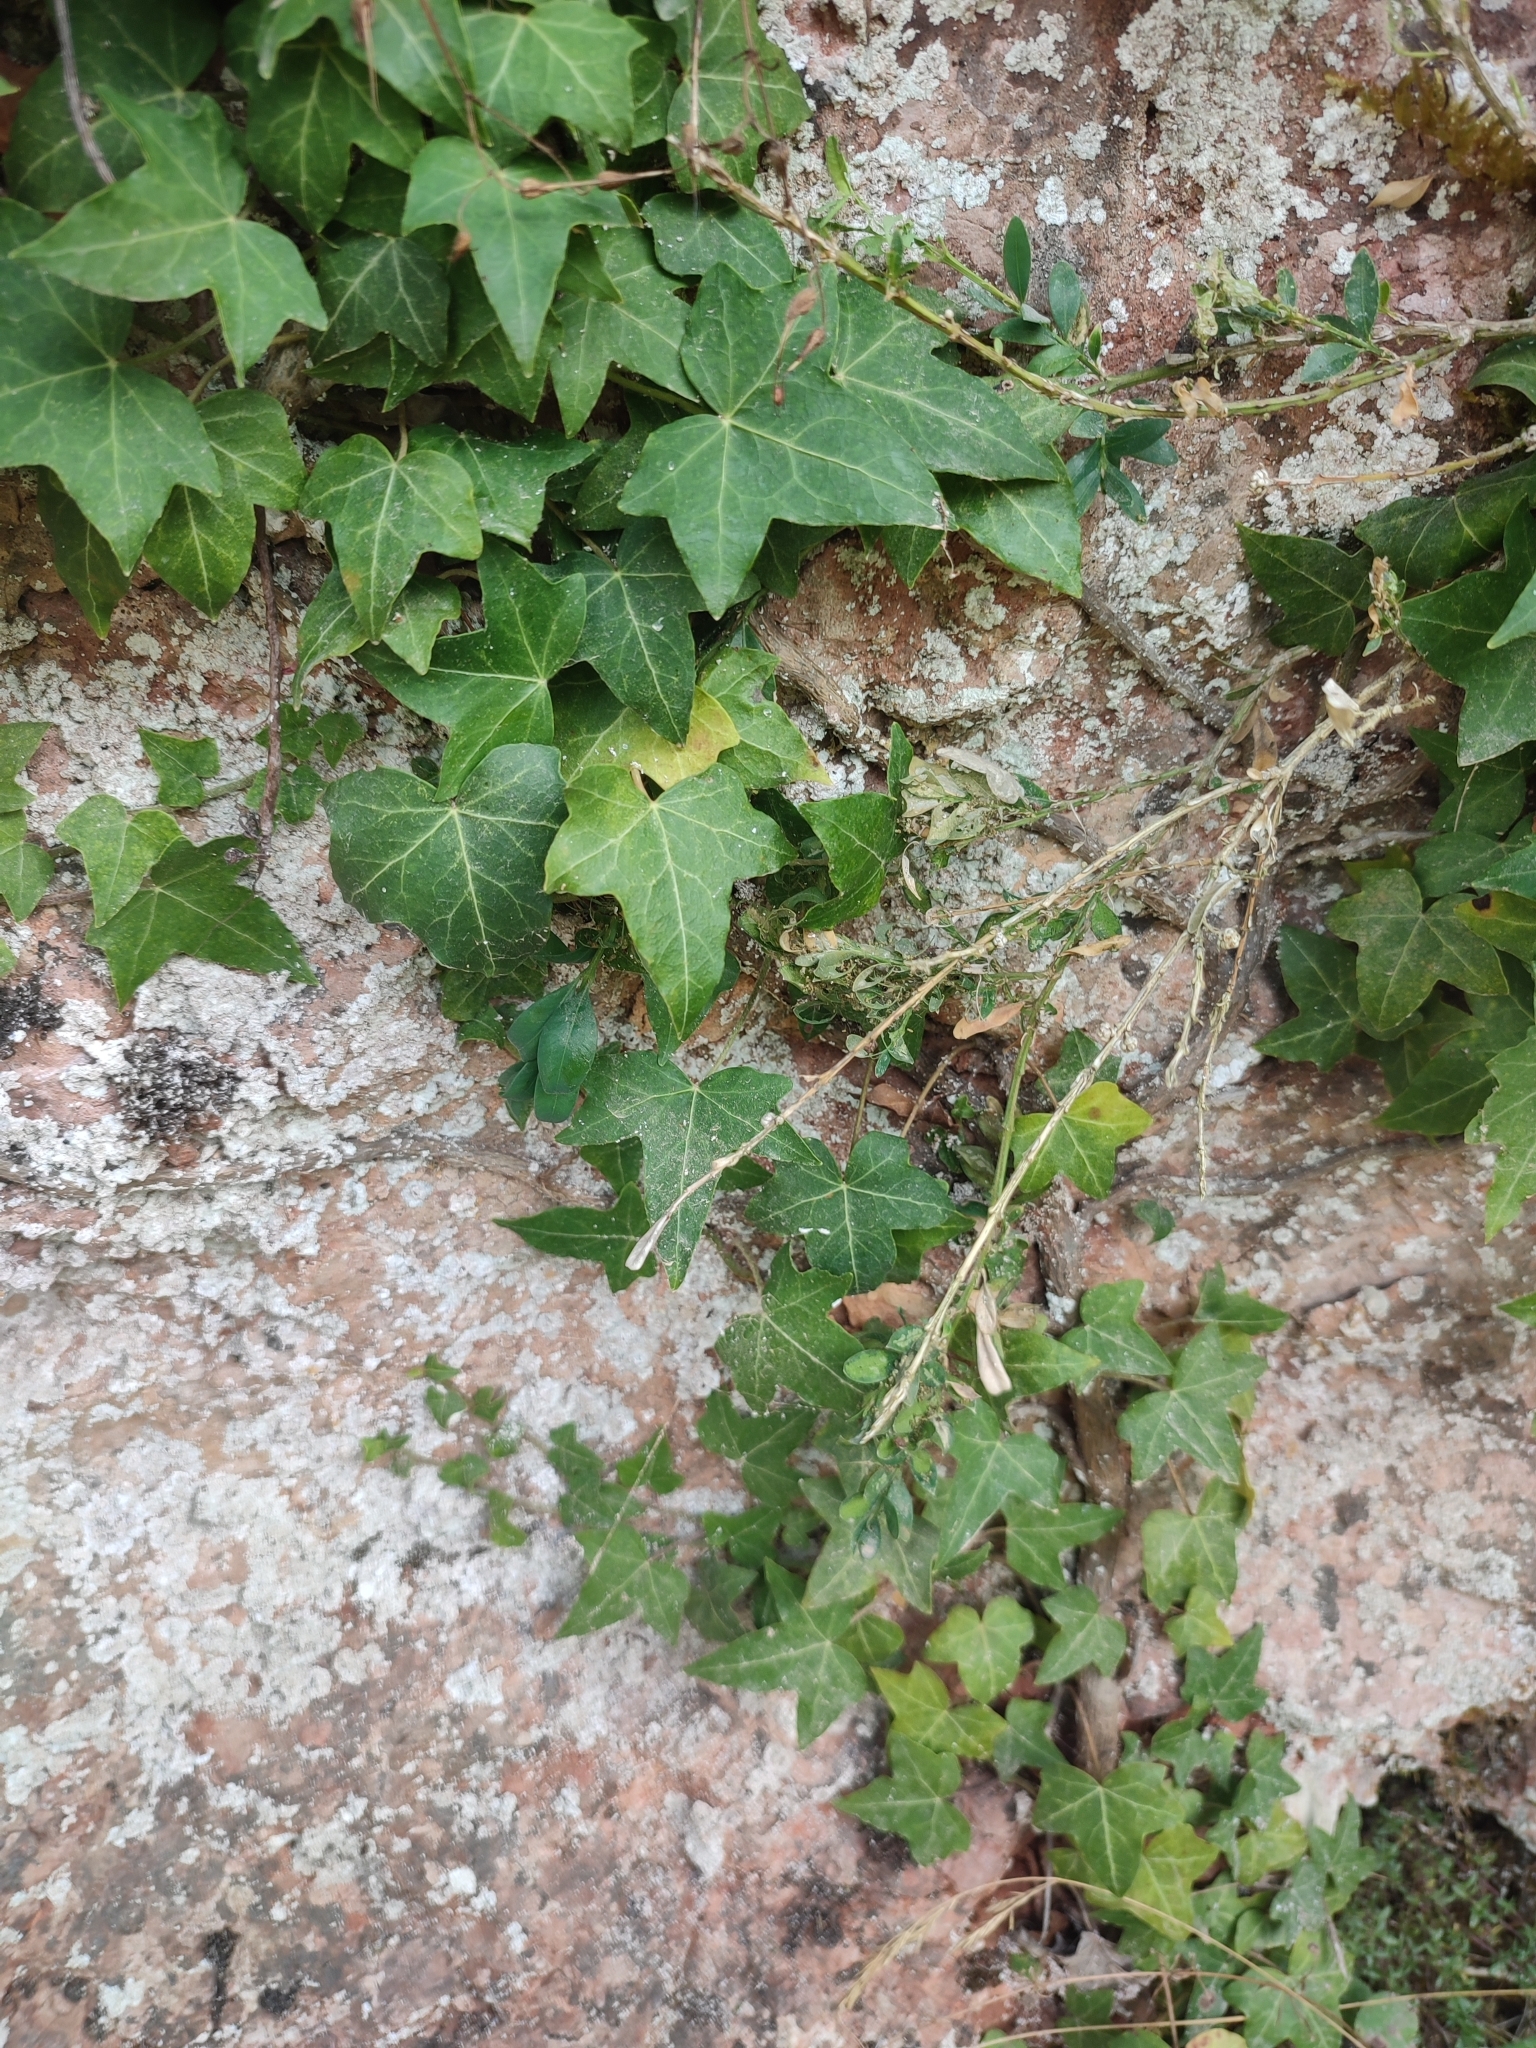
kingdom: Plantae
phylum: Tracheophyta
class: Magnoliopsida
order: Apiales
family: Araliaceae
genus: Hedera
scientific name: Hedera helix
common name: Ivy
